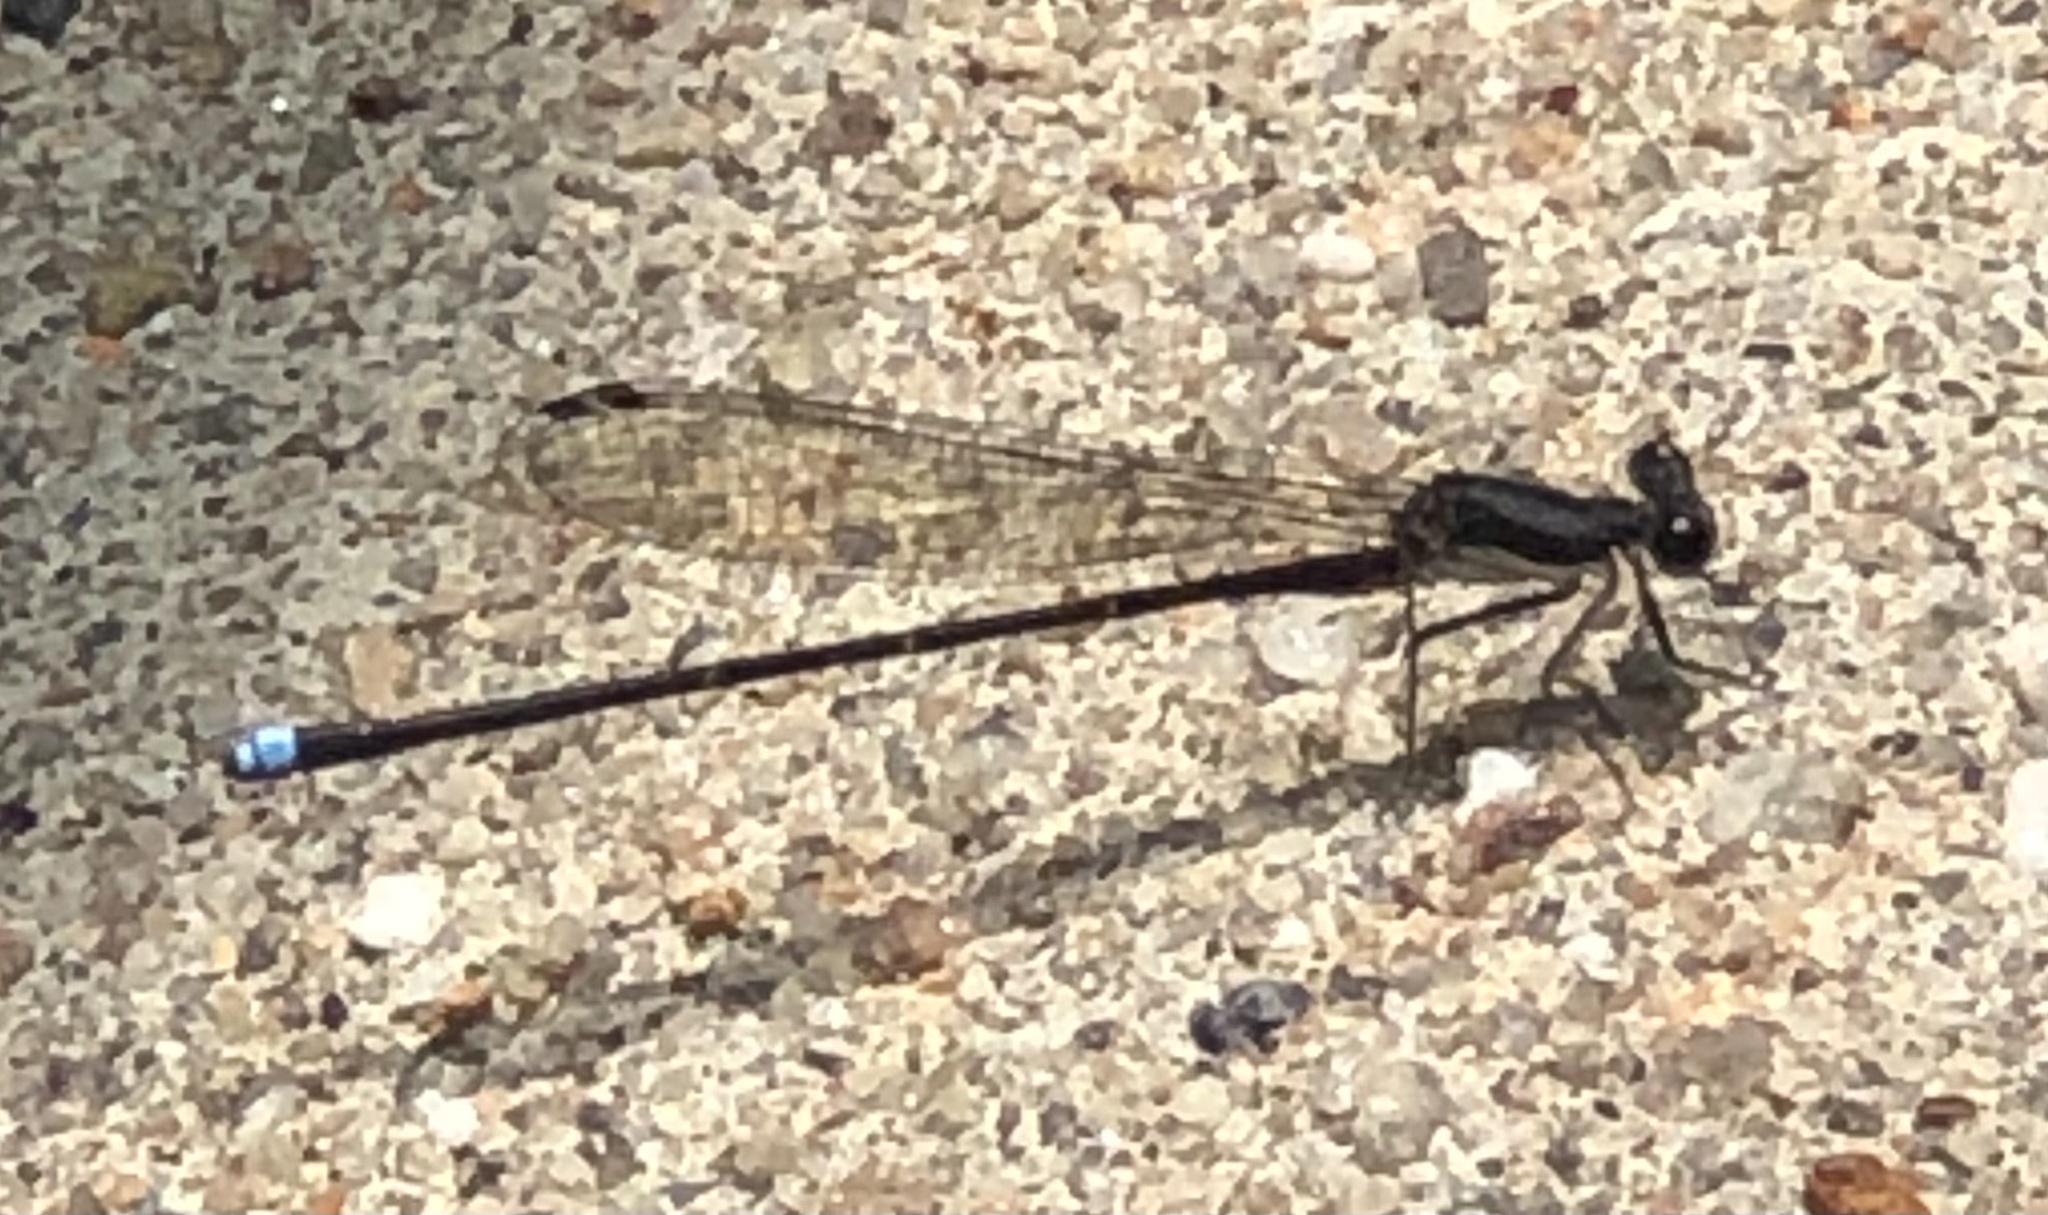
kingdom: Animalia
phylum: Arthropoda
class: Insecta
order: Odonata
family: Coenagrionidae
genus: Argia
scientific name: Argia tibialis
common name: Blue-tipped dancer
